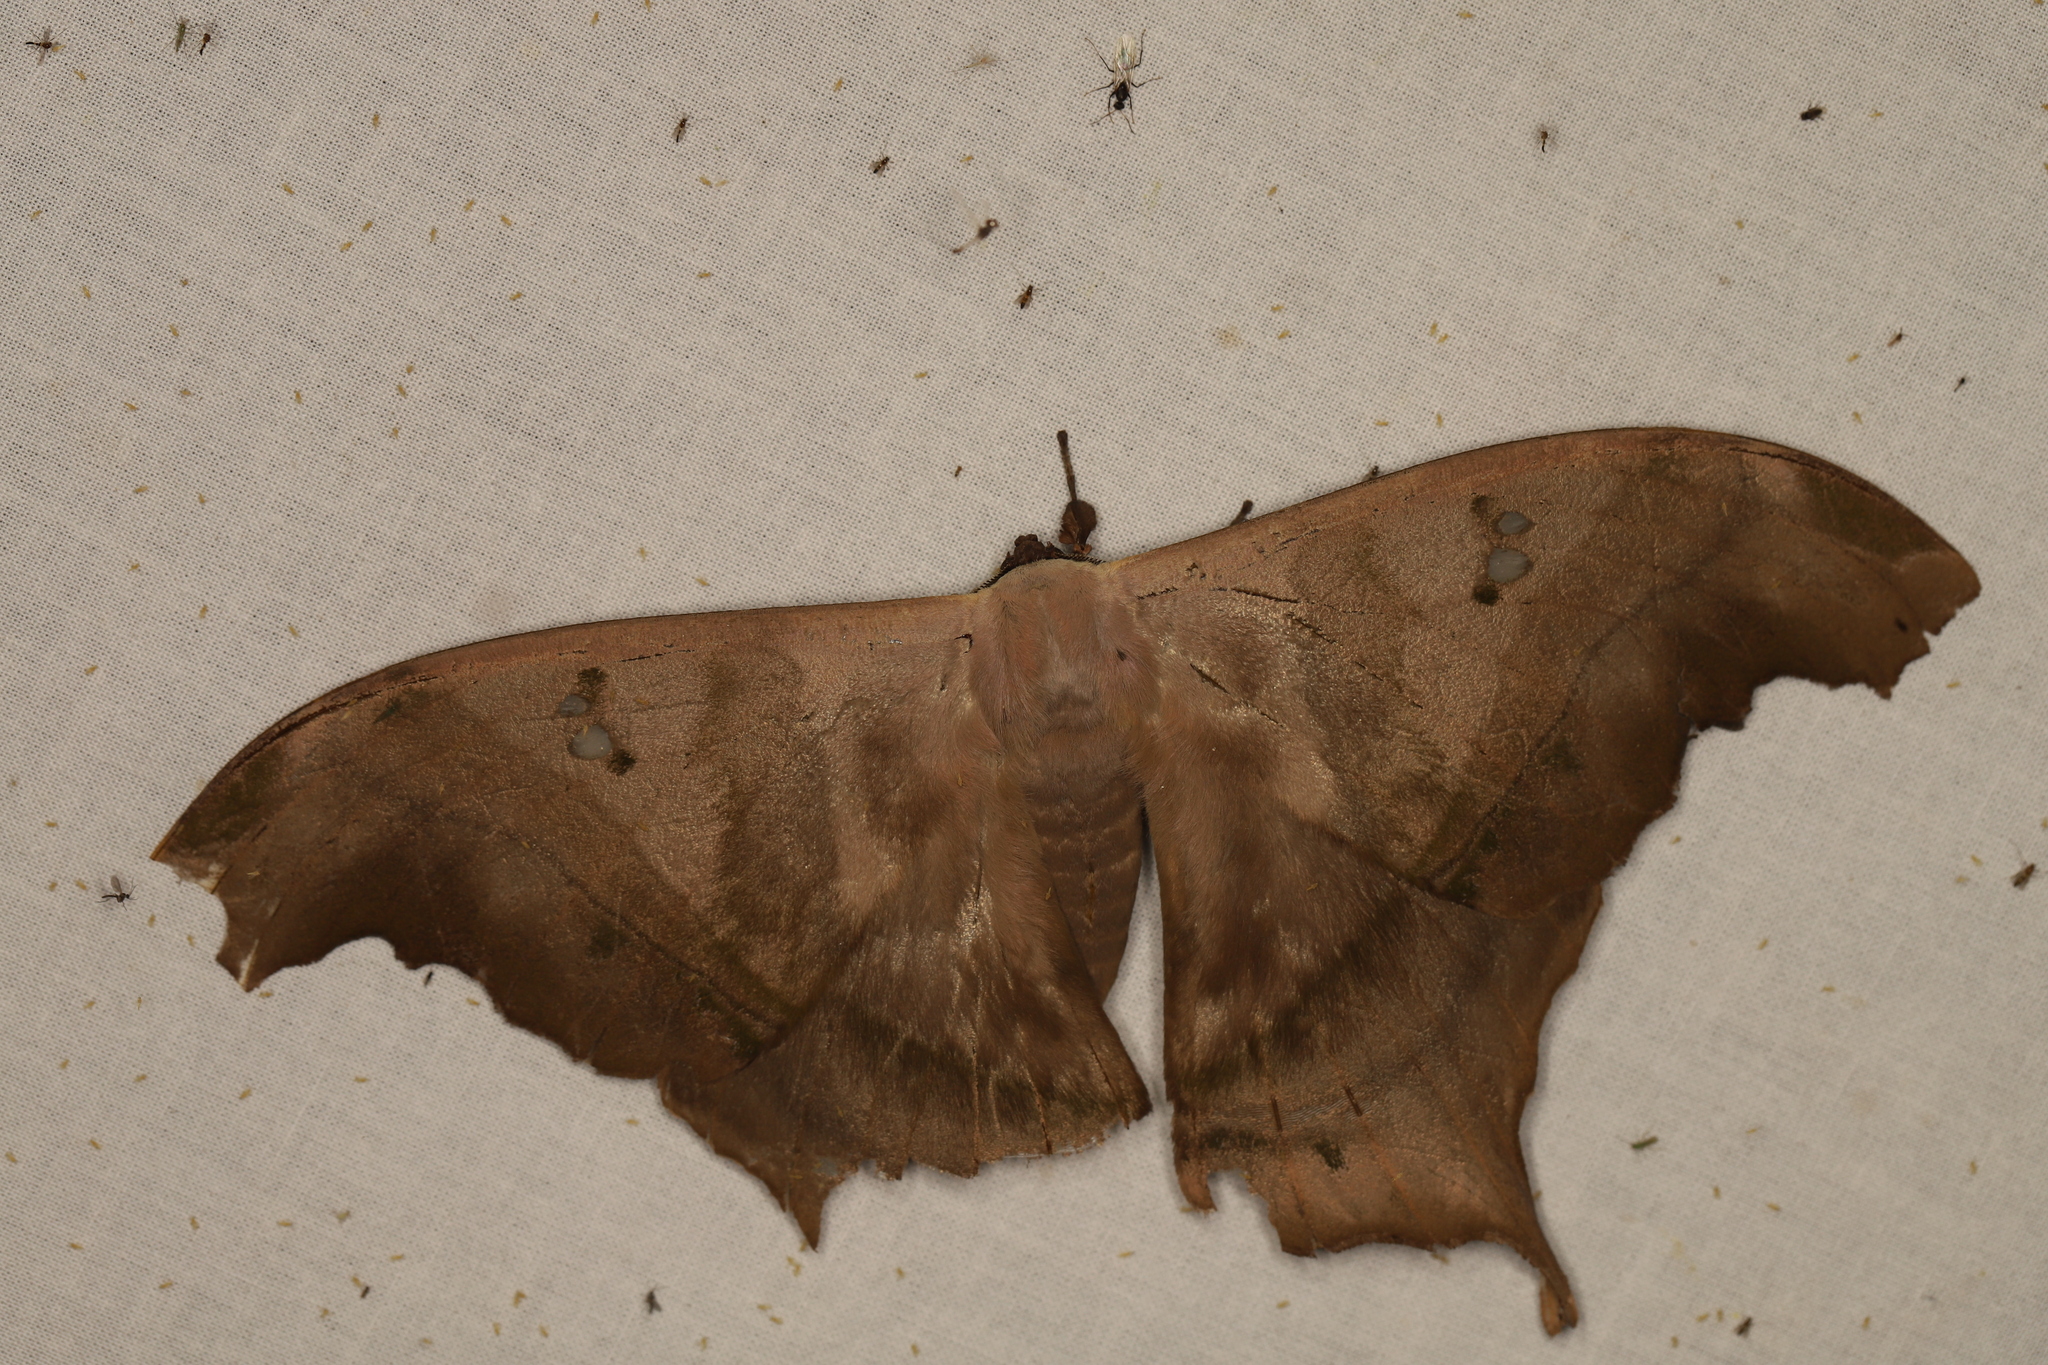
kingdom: Animalia
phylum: Arthropoda
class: Insecta
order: Lepidoptera
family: Saturniidae
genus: Titaea
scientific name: Titaea tamerlan
